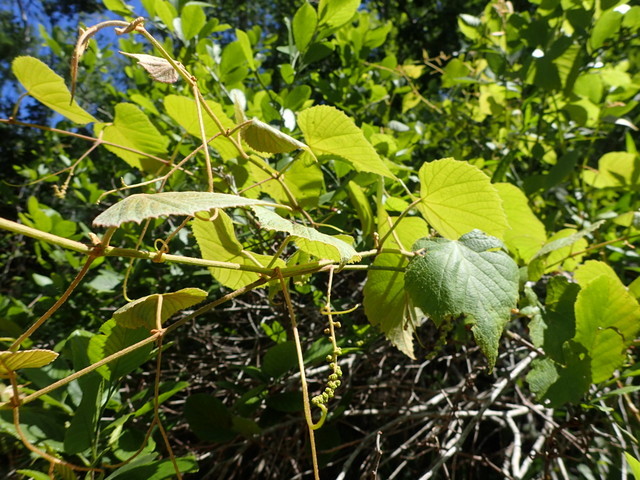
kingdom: Plantae
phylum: Tracheophyta
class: Magnoliopsida
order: Vitales
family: Vitaceae
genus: Vitis
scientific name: Vitis cinerea
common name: Ashy grape
